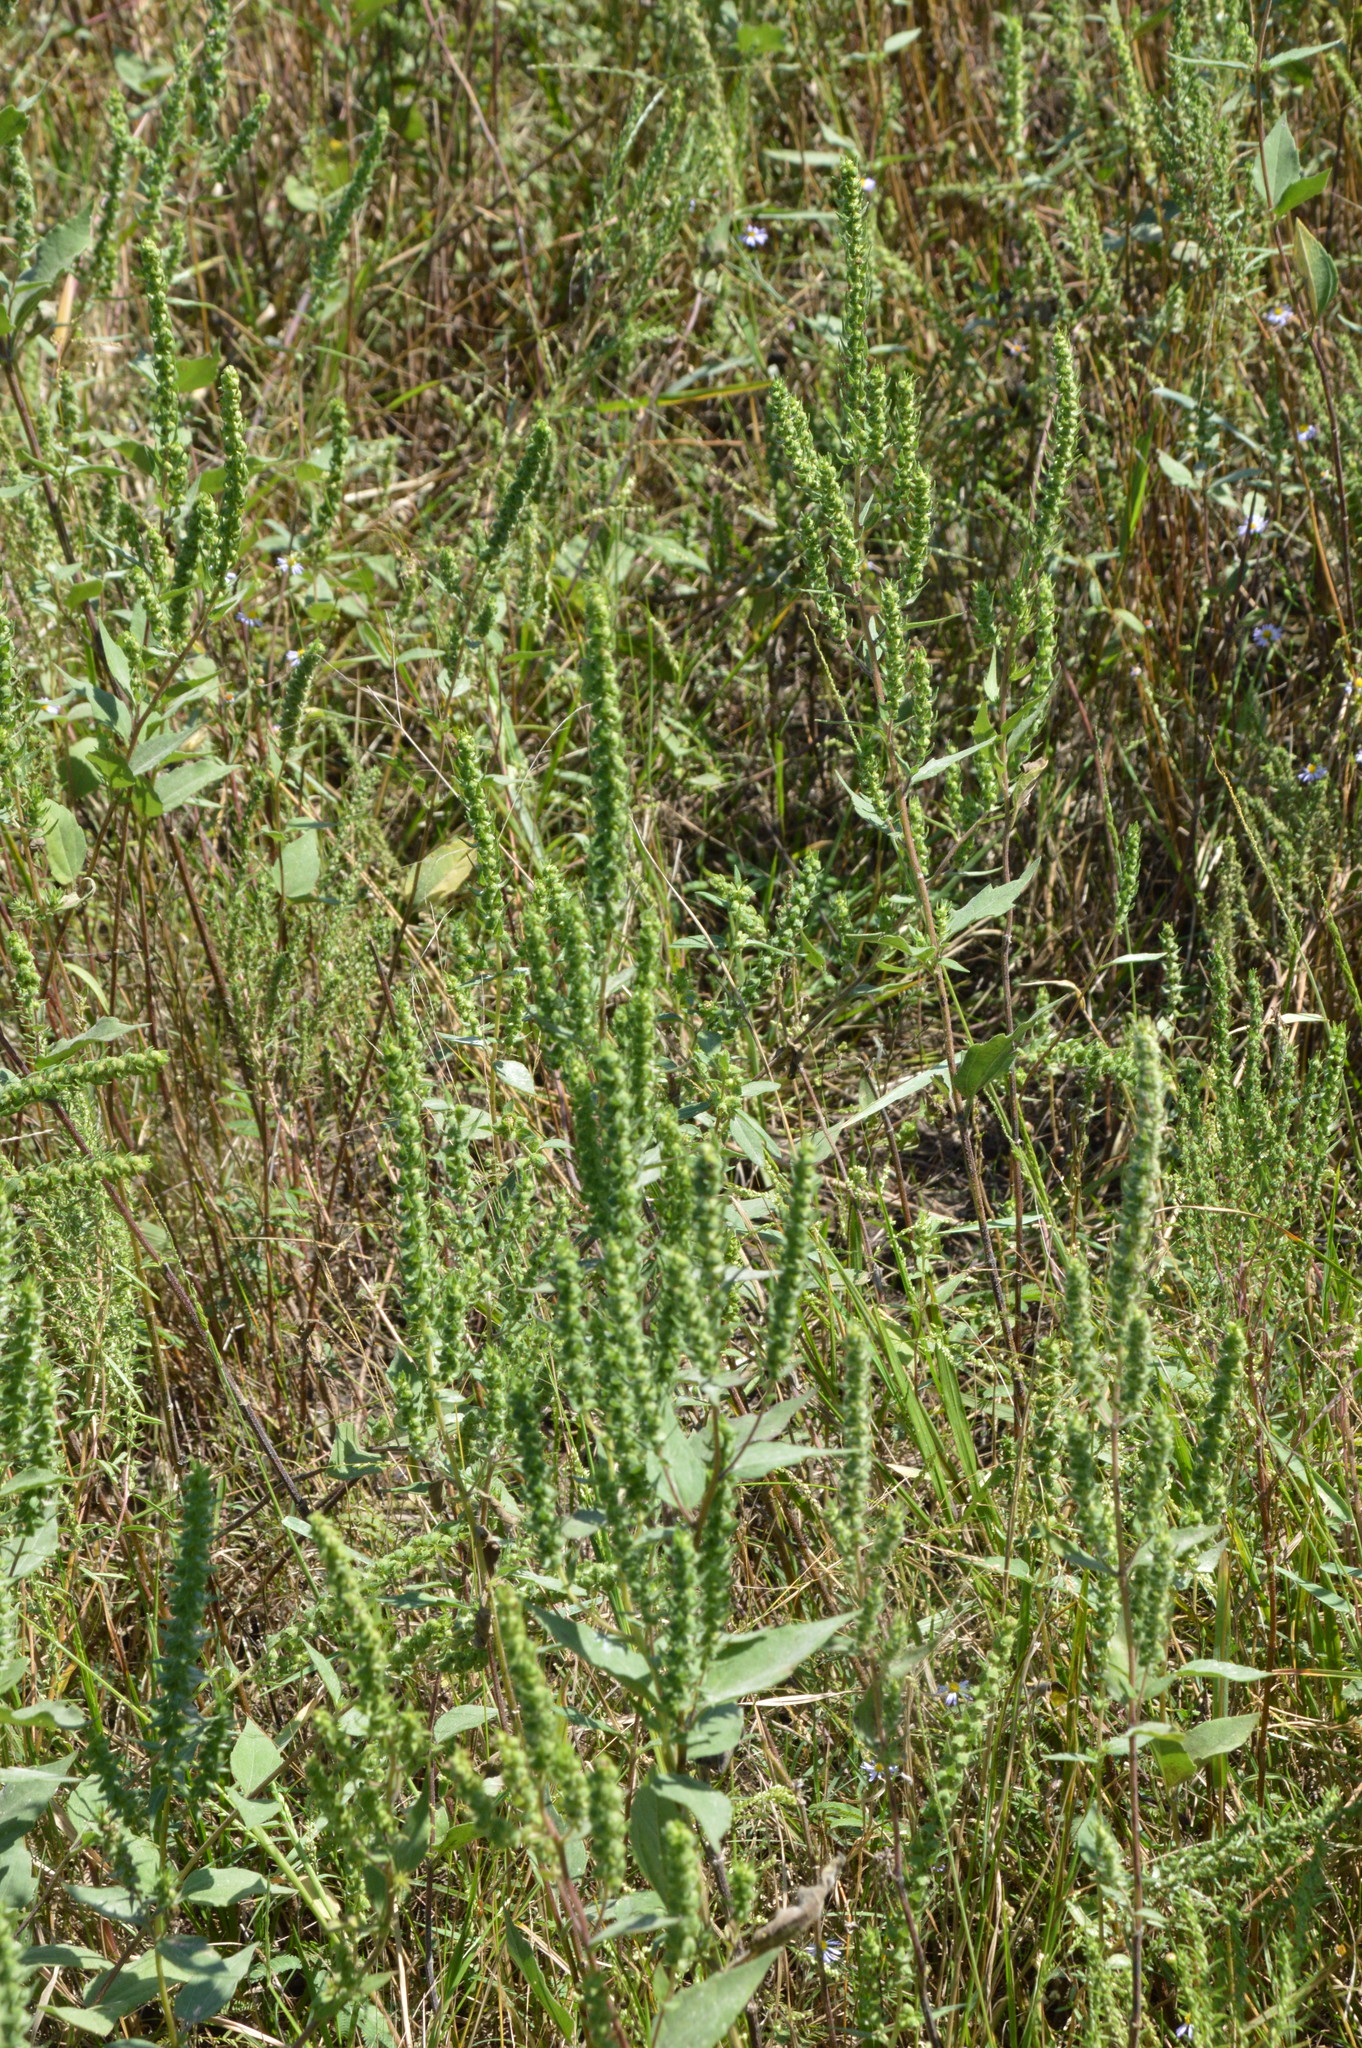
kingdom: Plantae
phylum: Tracheophyta
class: Magnoliopsida
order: Asterales
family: Asteraceae
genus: Iva
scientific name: Iva annua
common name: Marsh-elder
